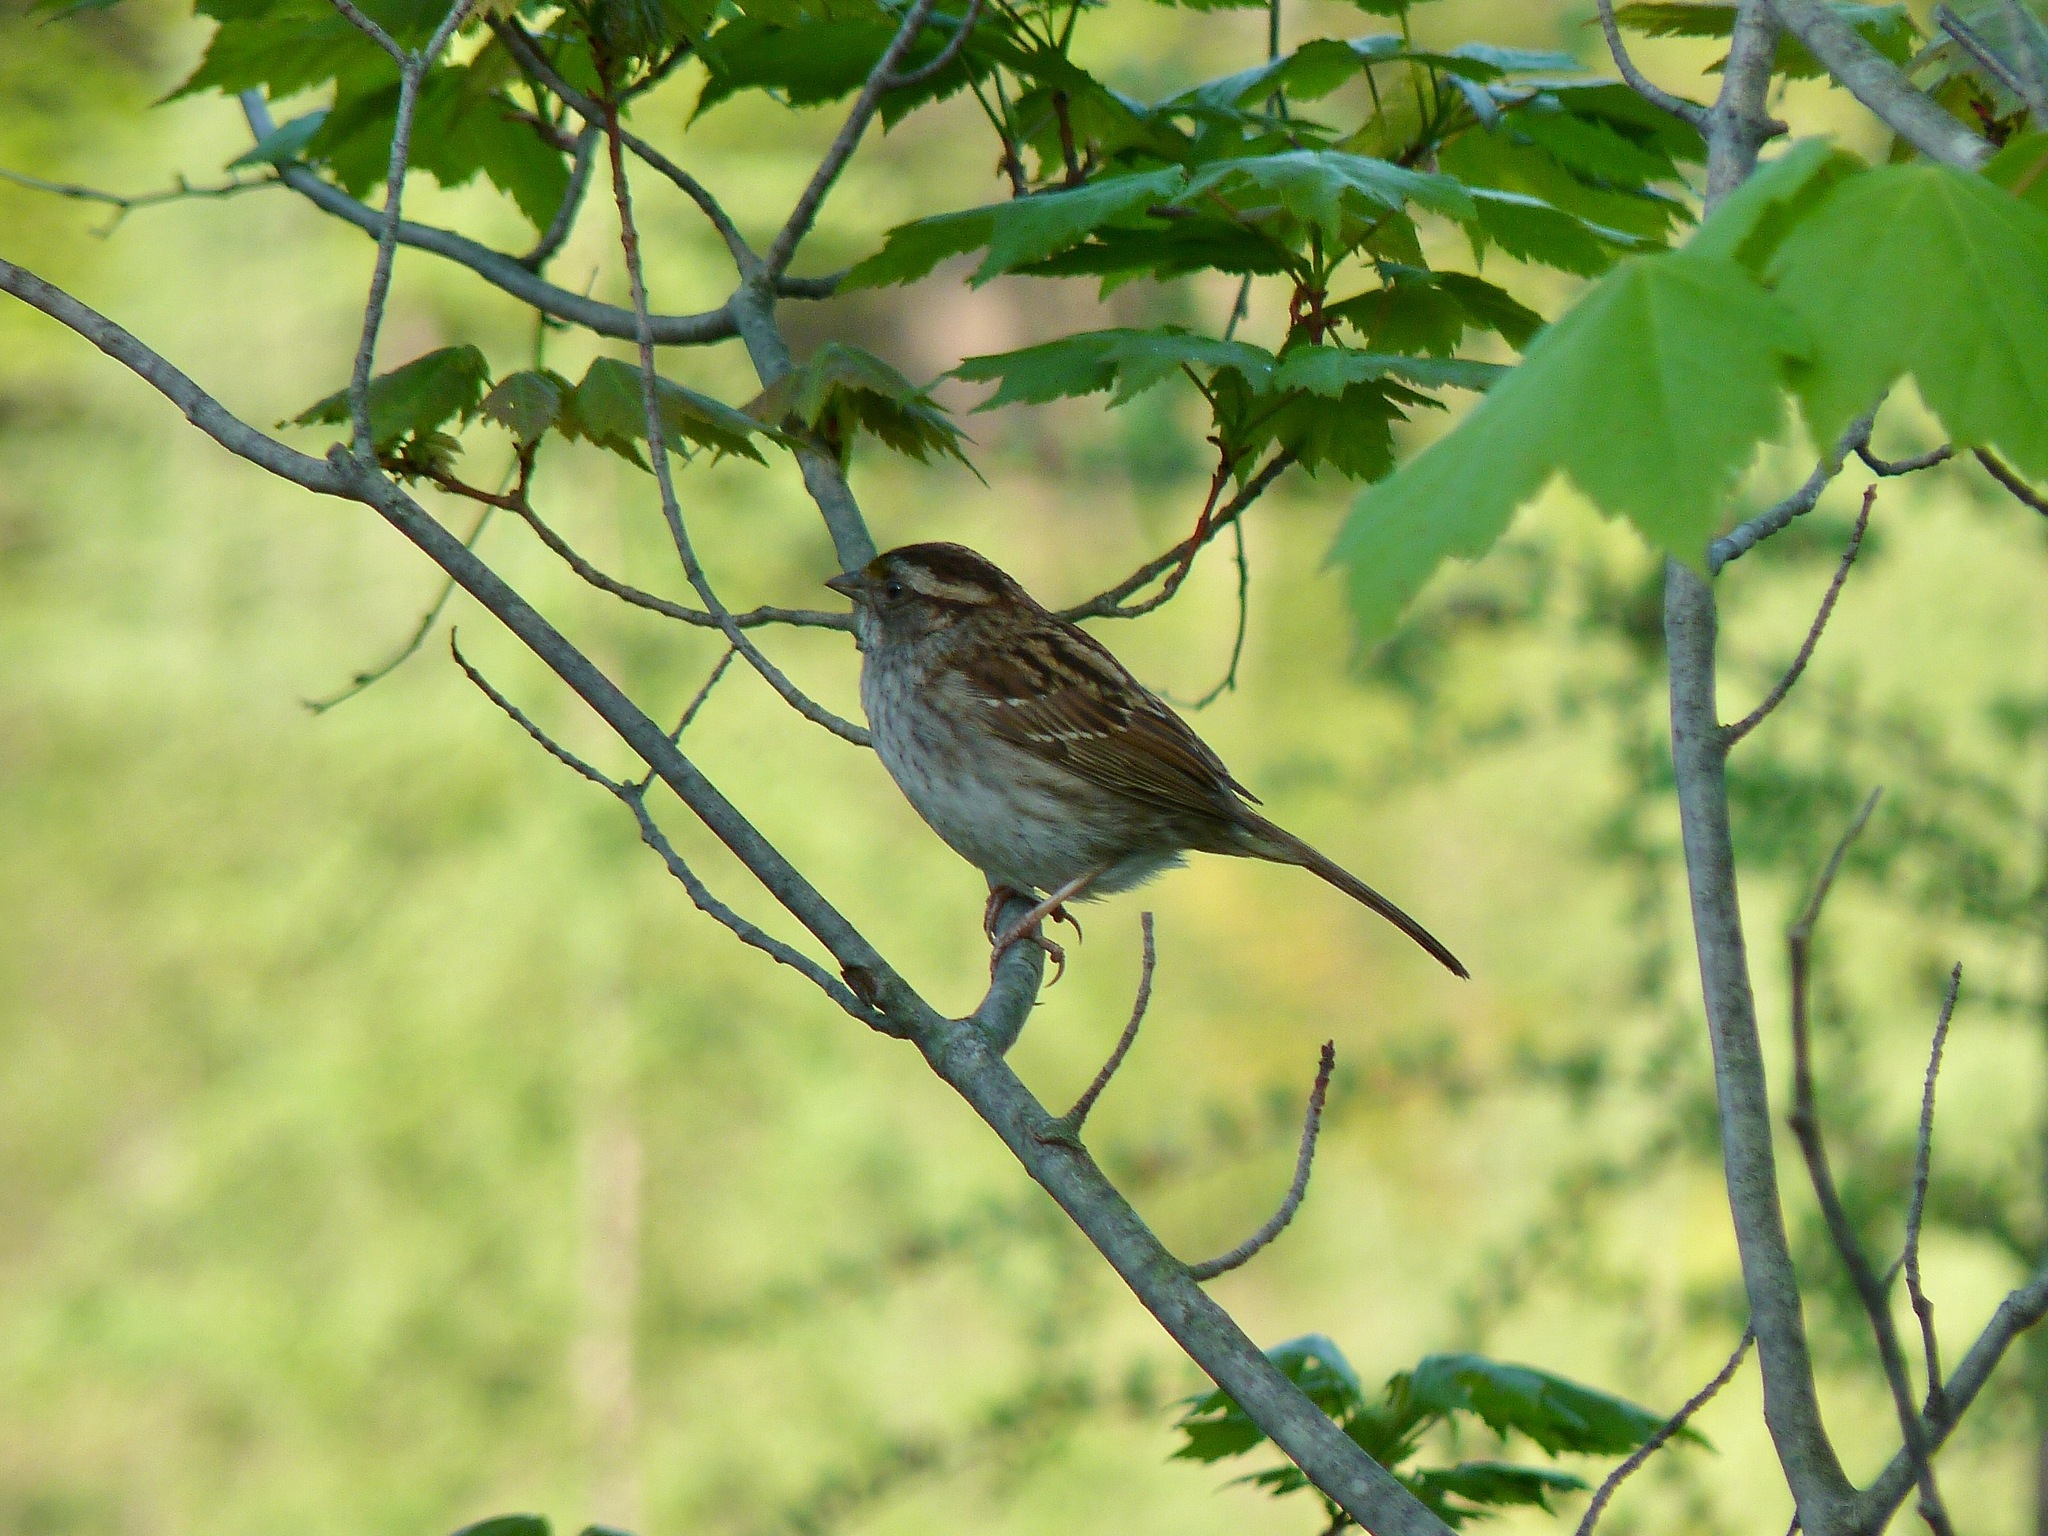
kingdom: Animalia
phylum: Chordata
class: Aves
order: Passeriformes
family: Passerellidae
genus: Zonotrichia
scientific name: Zonotrichia albicollis
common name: White-throated sparrow
